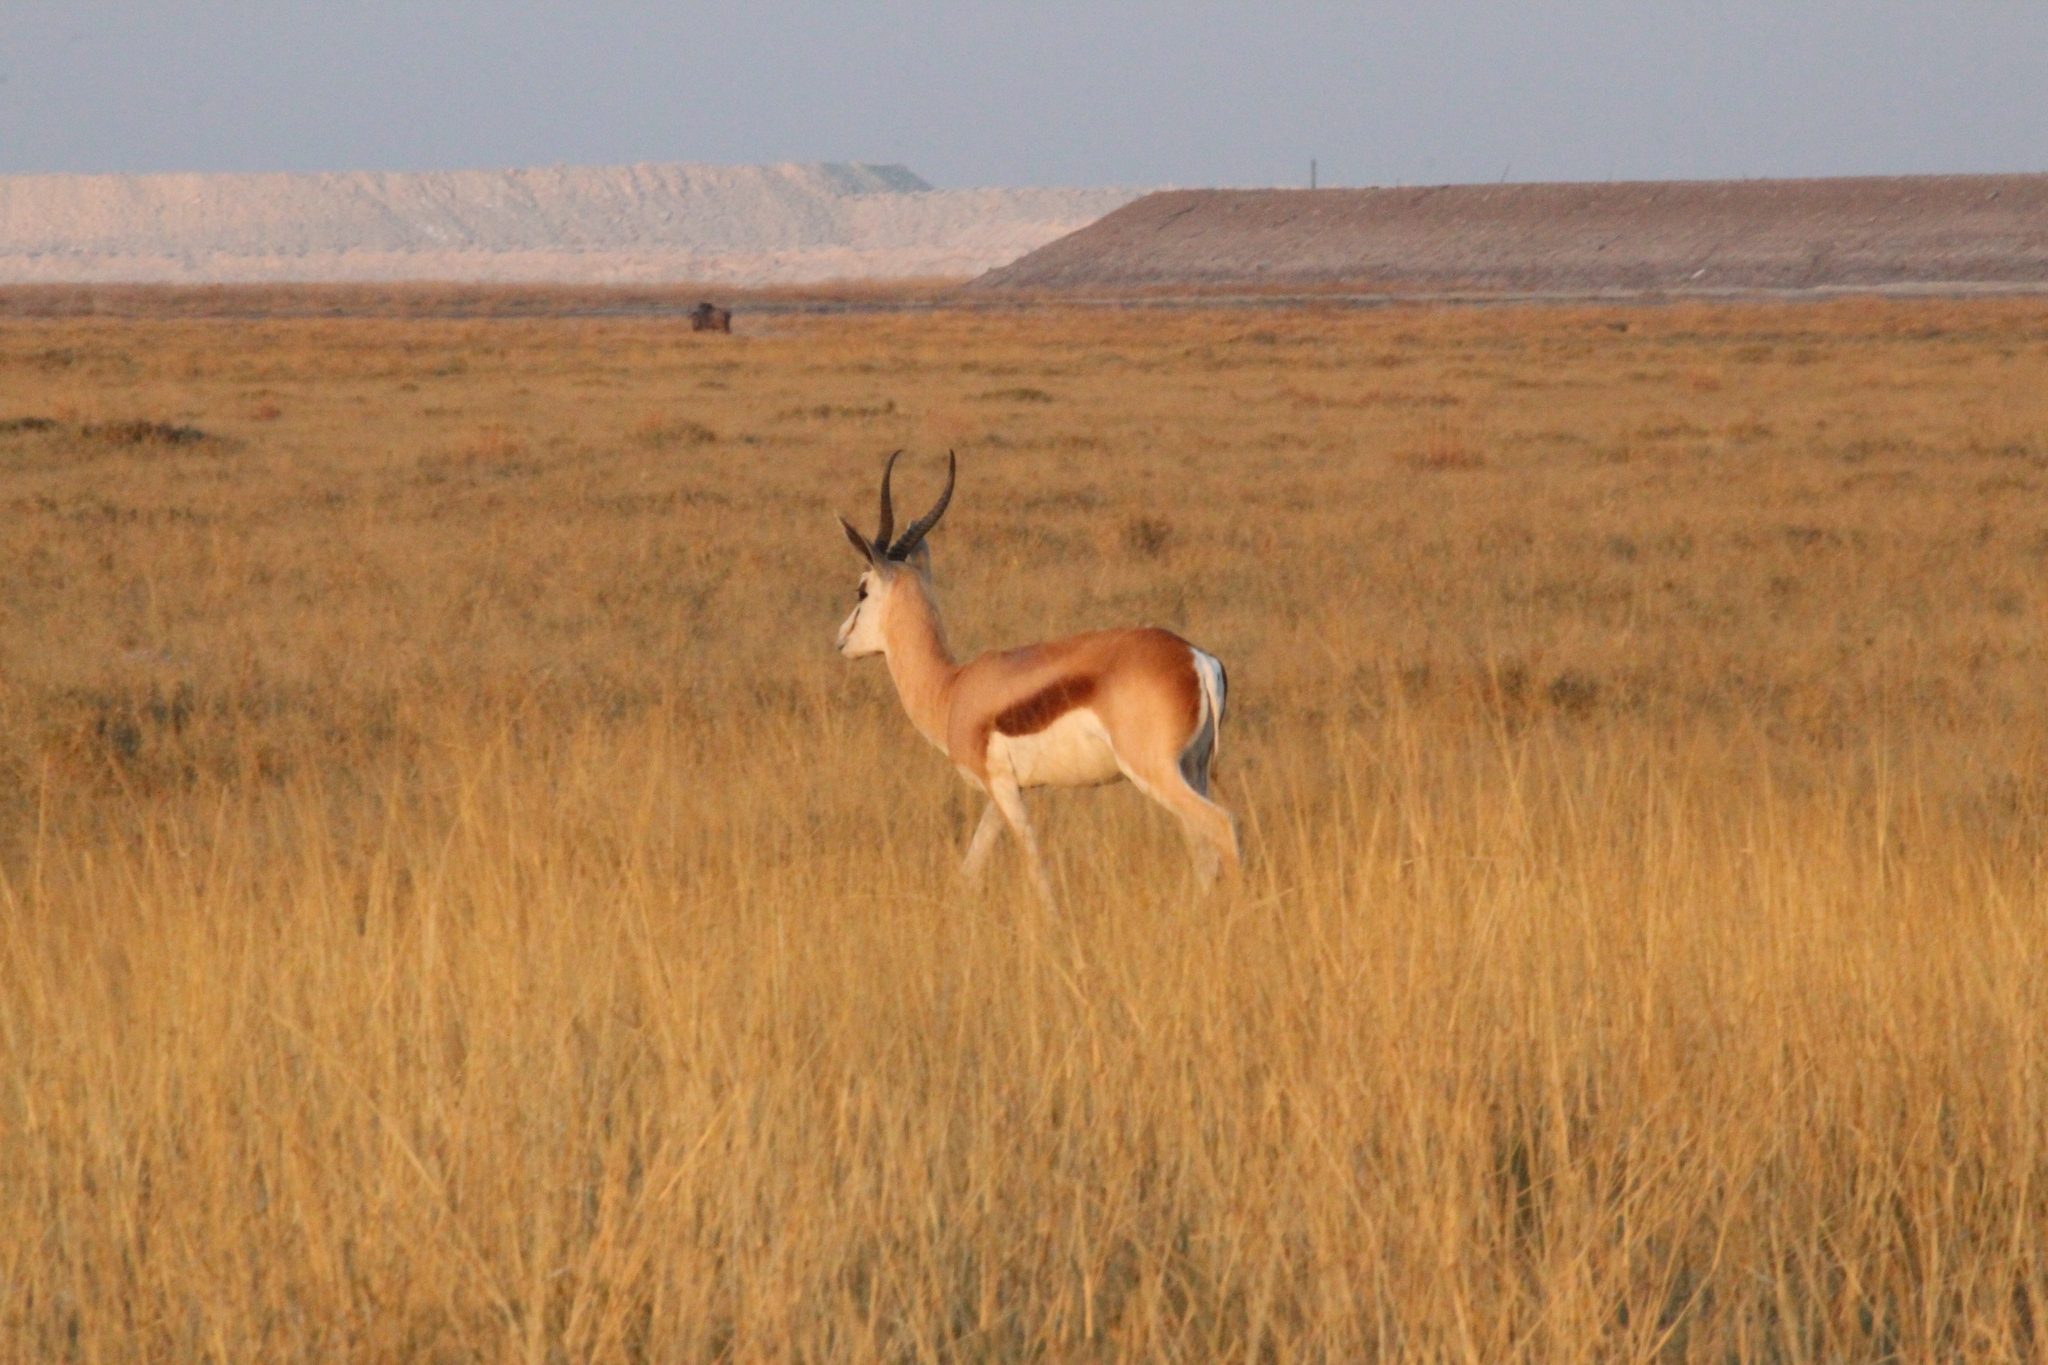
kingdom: Animalia
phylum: Chordata
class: Mammalia
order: Artiodactyla
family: Bovidae
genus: Antidorcas
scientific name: Antidorcas marsupialis
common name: Springbok
